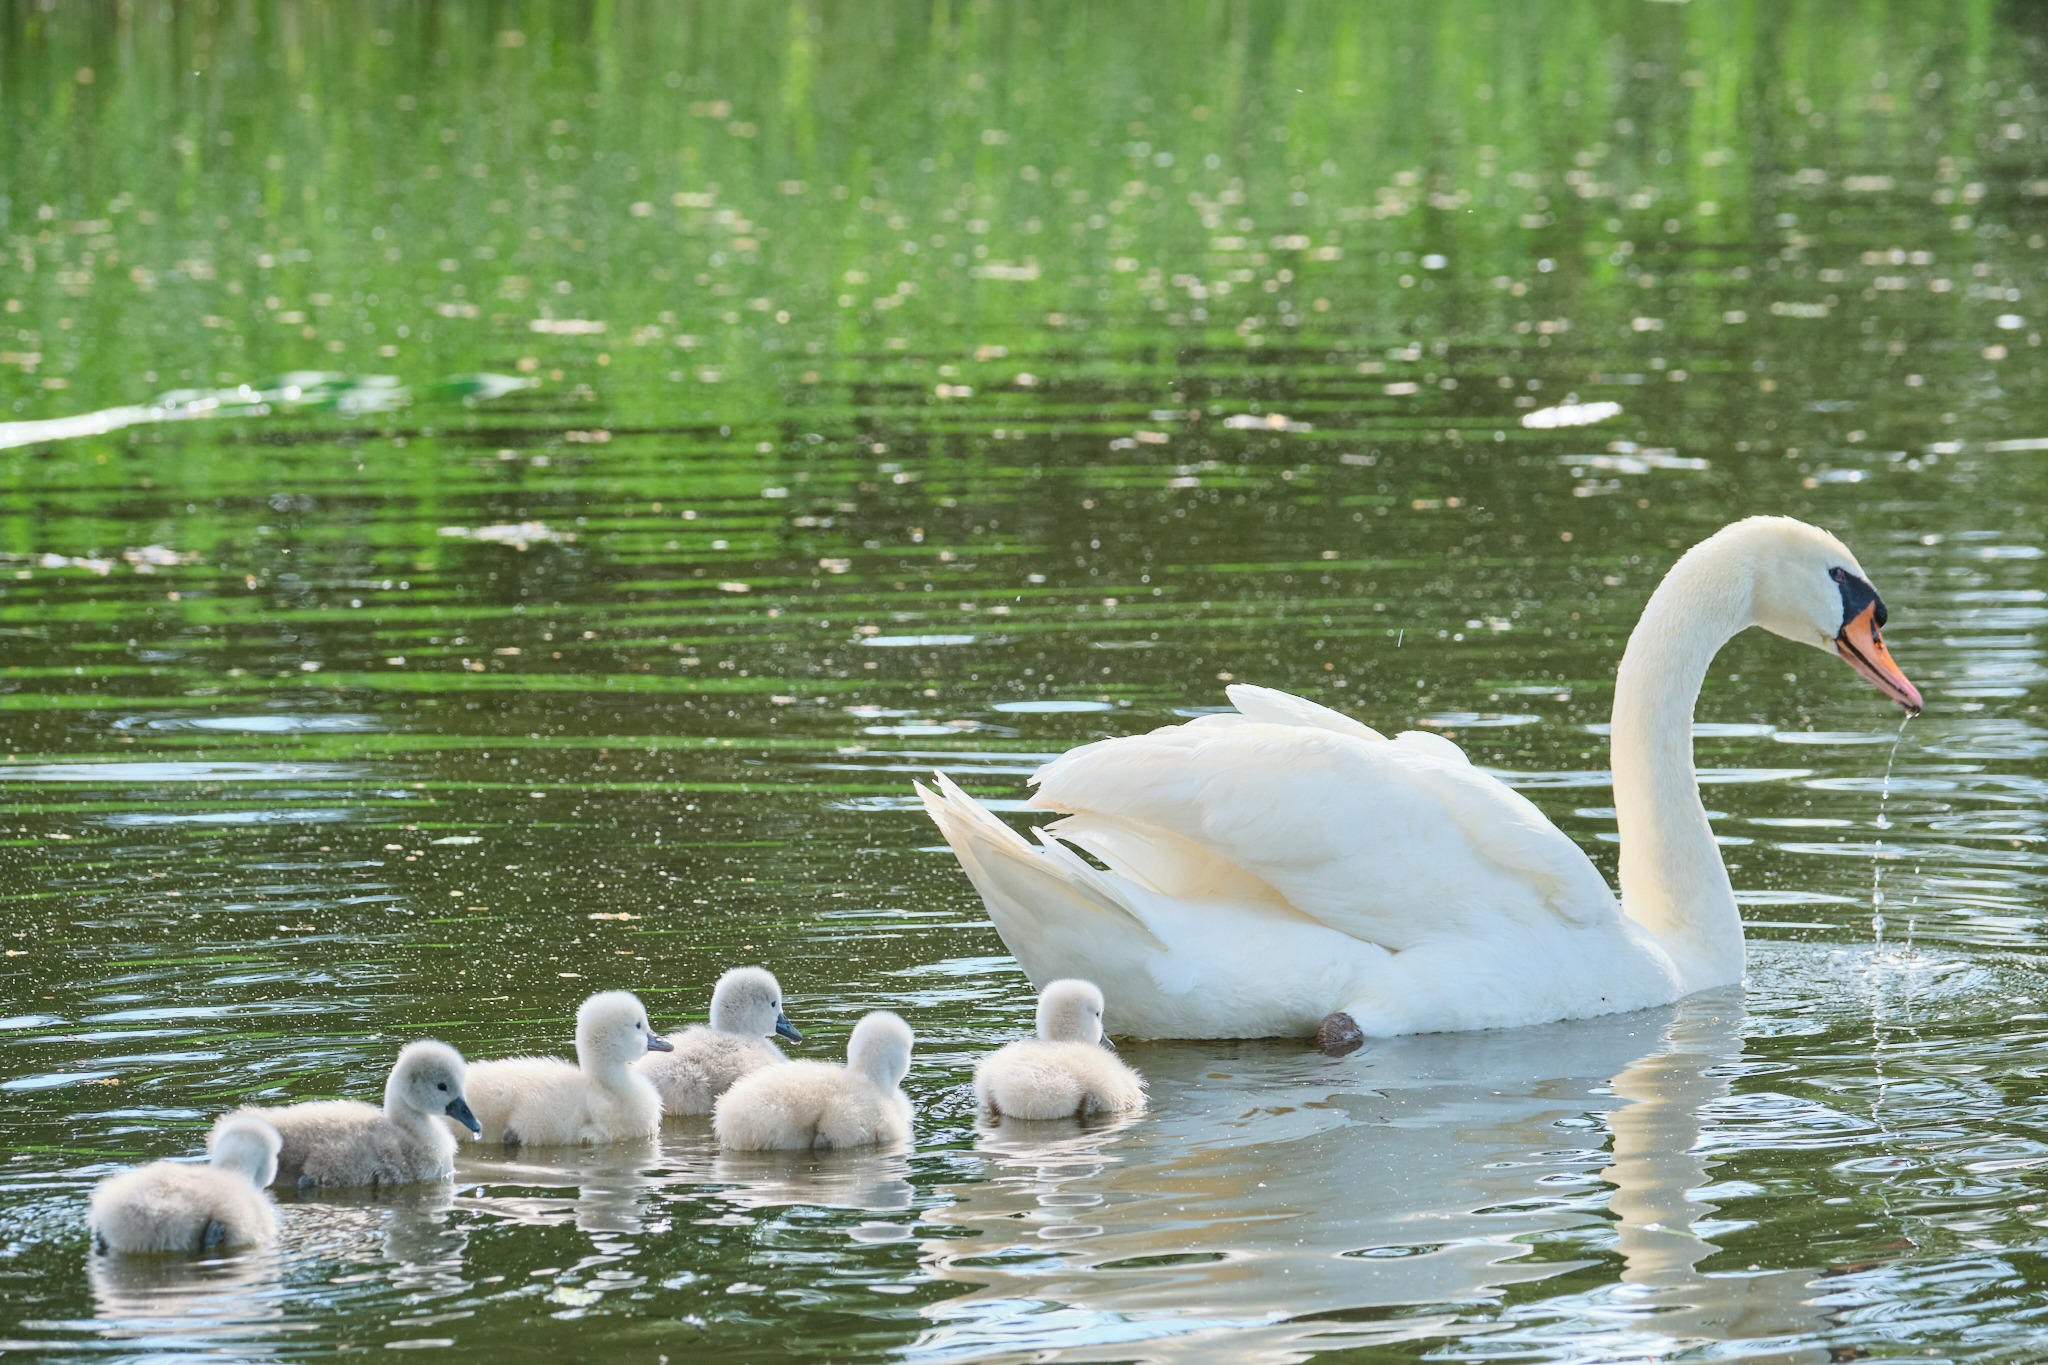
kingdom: Animalia
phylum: Chordata
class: Aves
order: Anseriformes
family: Anatidae
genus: Cygnus
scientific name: Cygnus olor
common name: Mute swan
